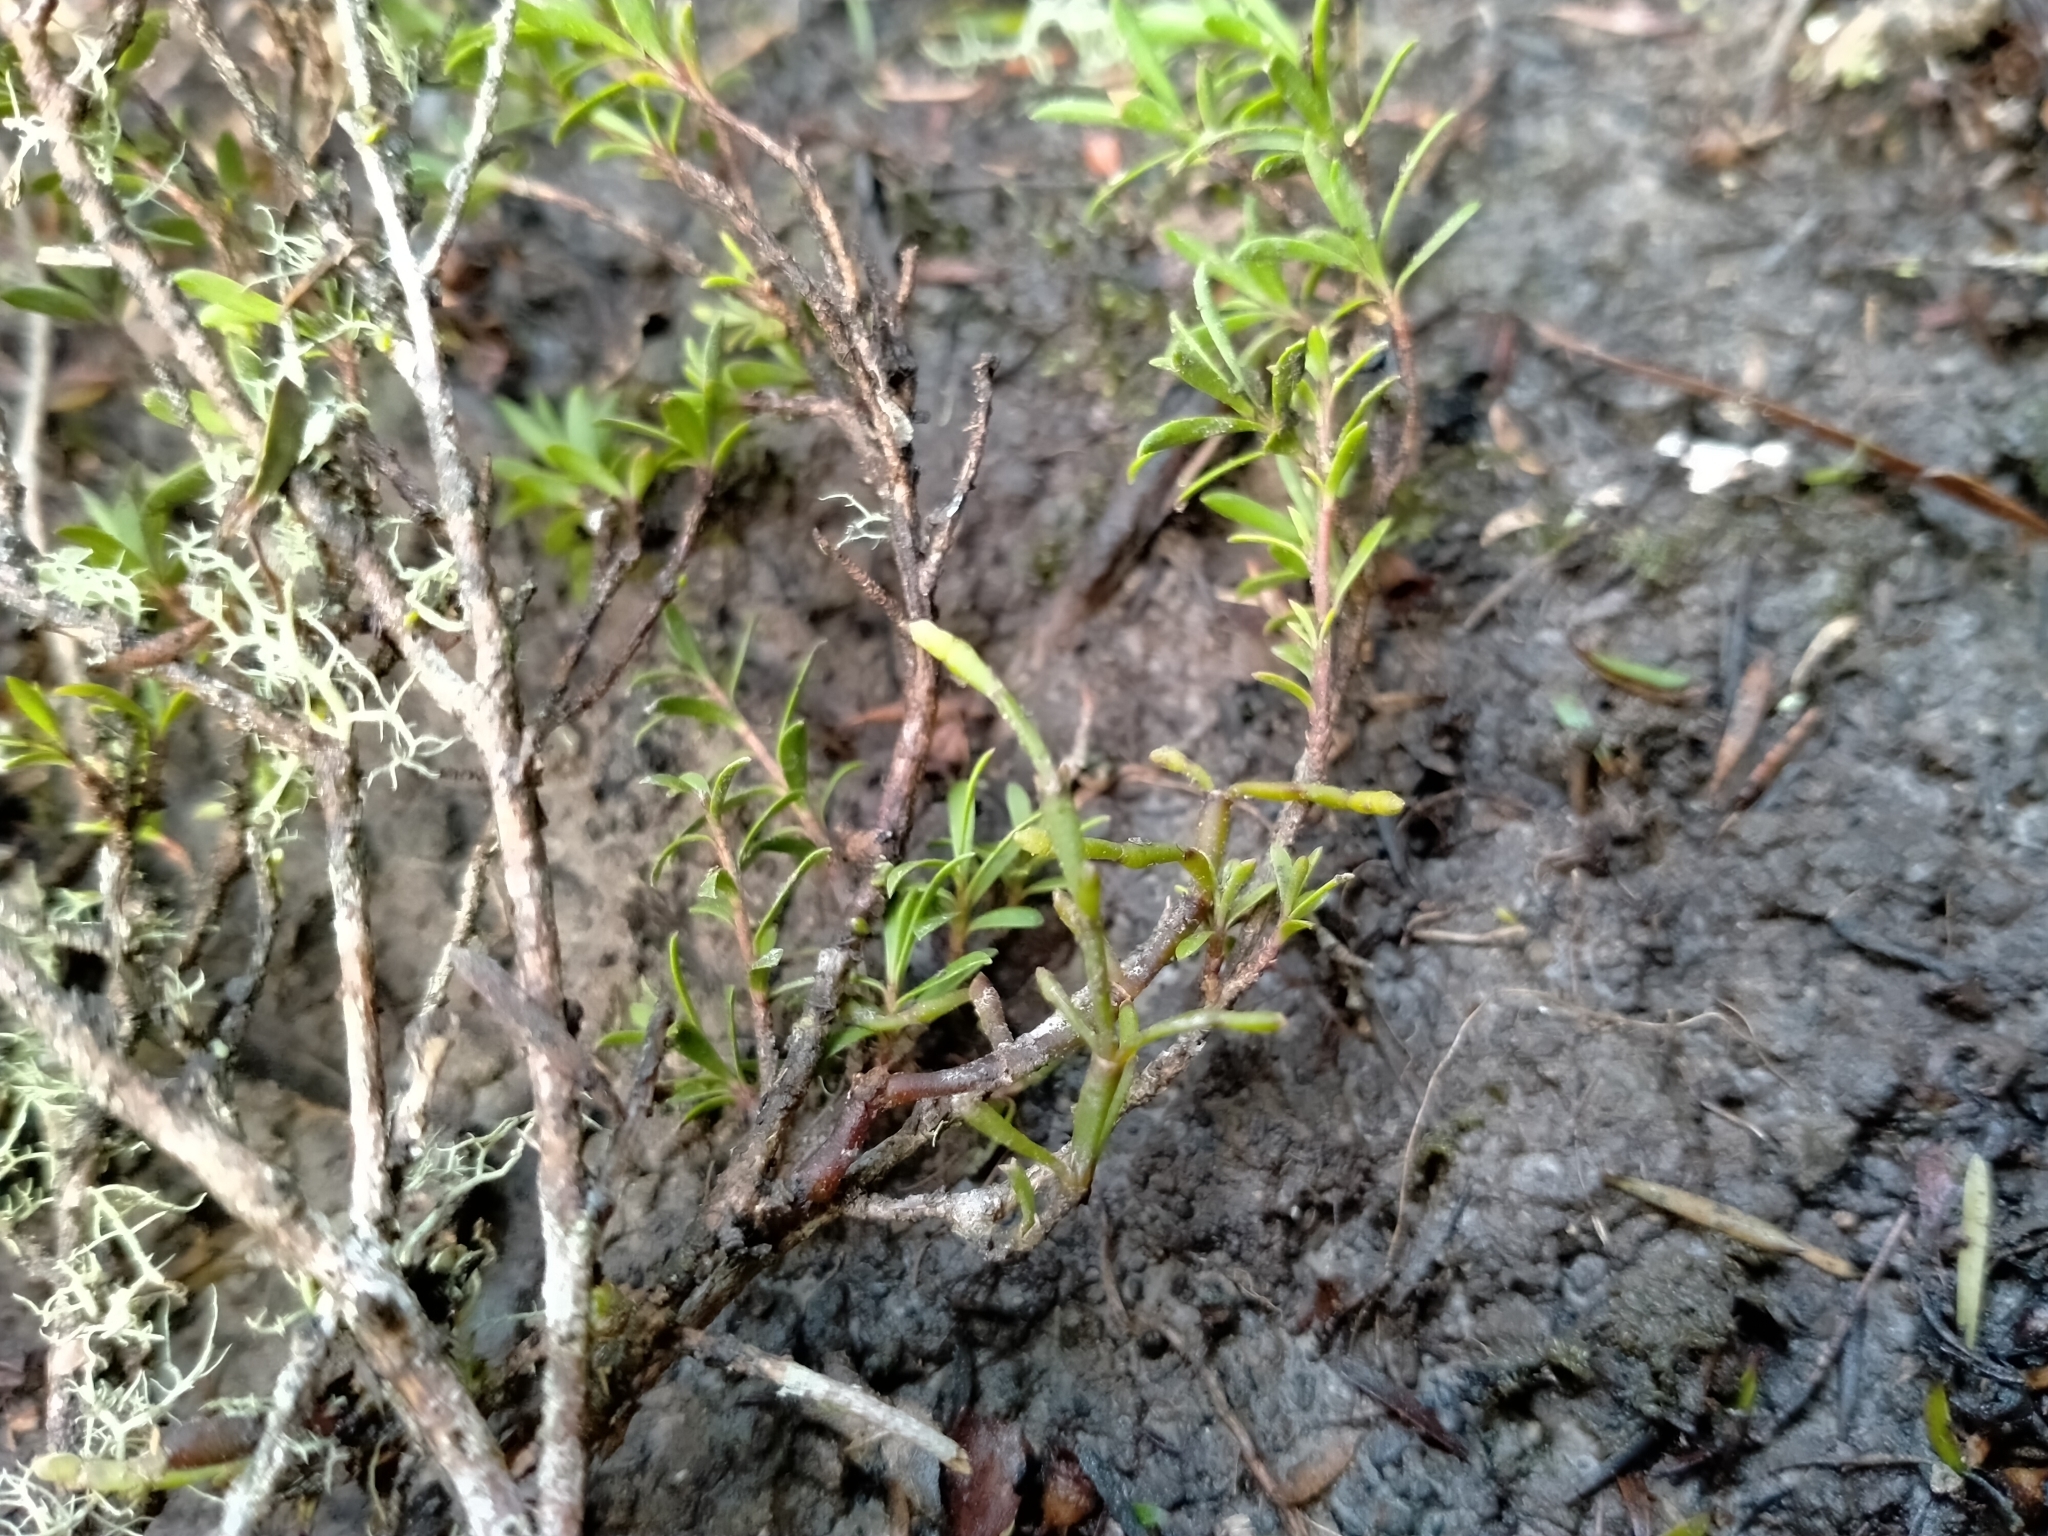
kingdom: Plantae
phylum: Tracheophyta
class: Magnoliopsida
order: Santalales
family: Viscaceae
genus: Korthalsella
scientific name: Korthalsella salicornioides
